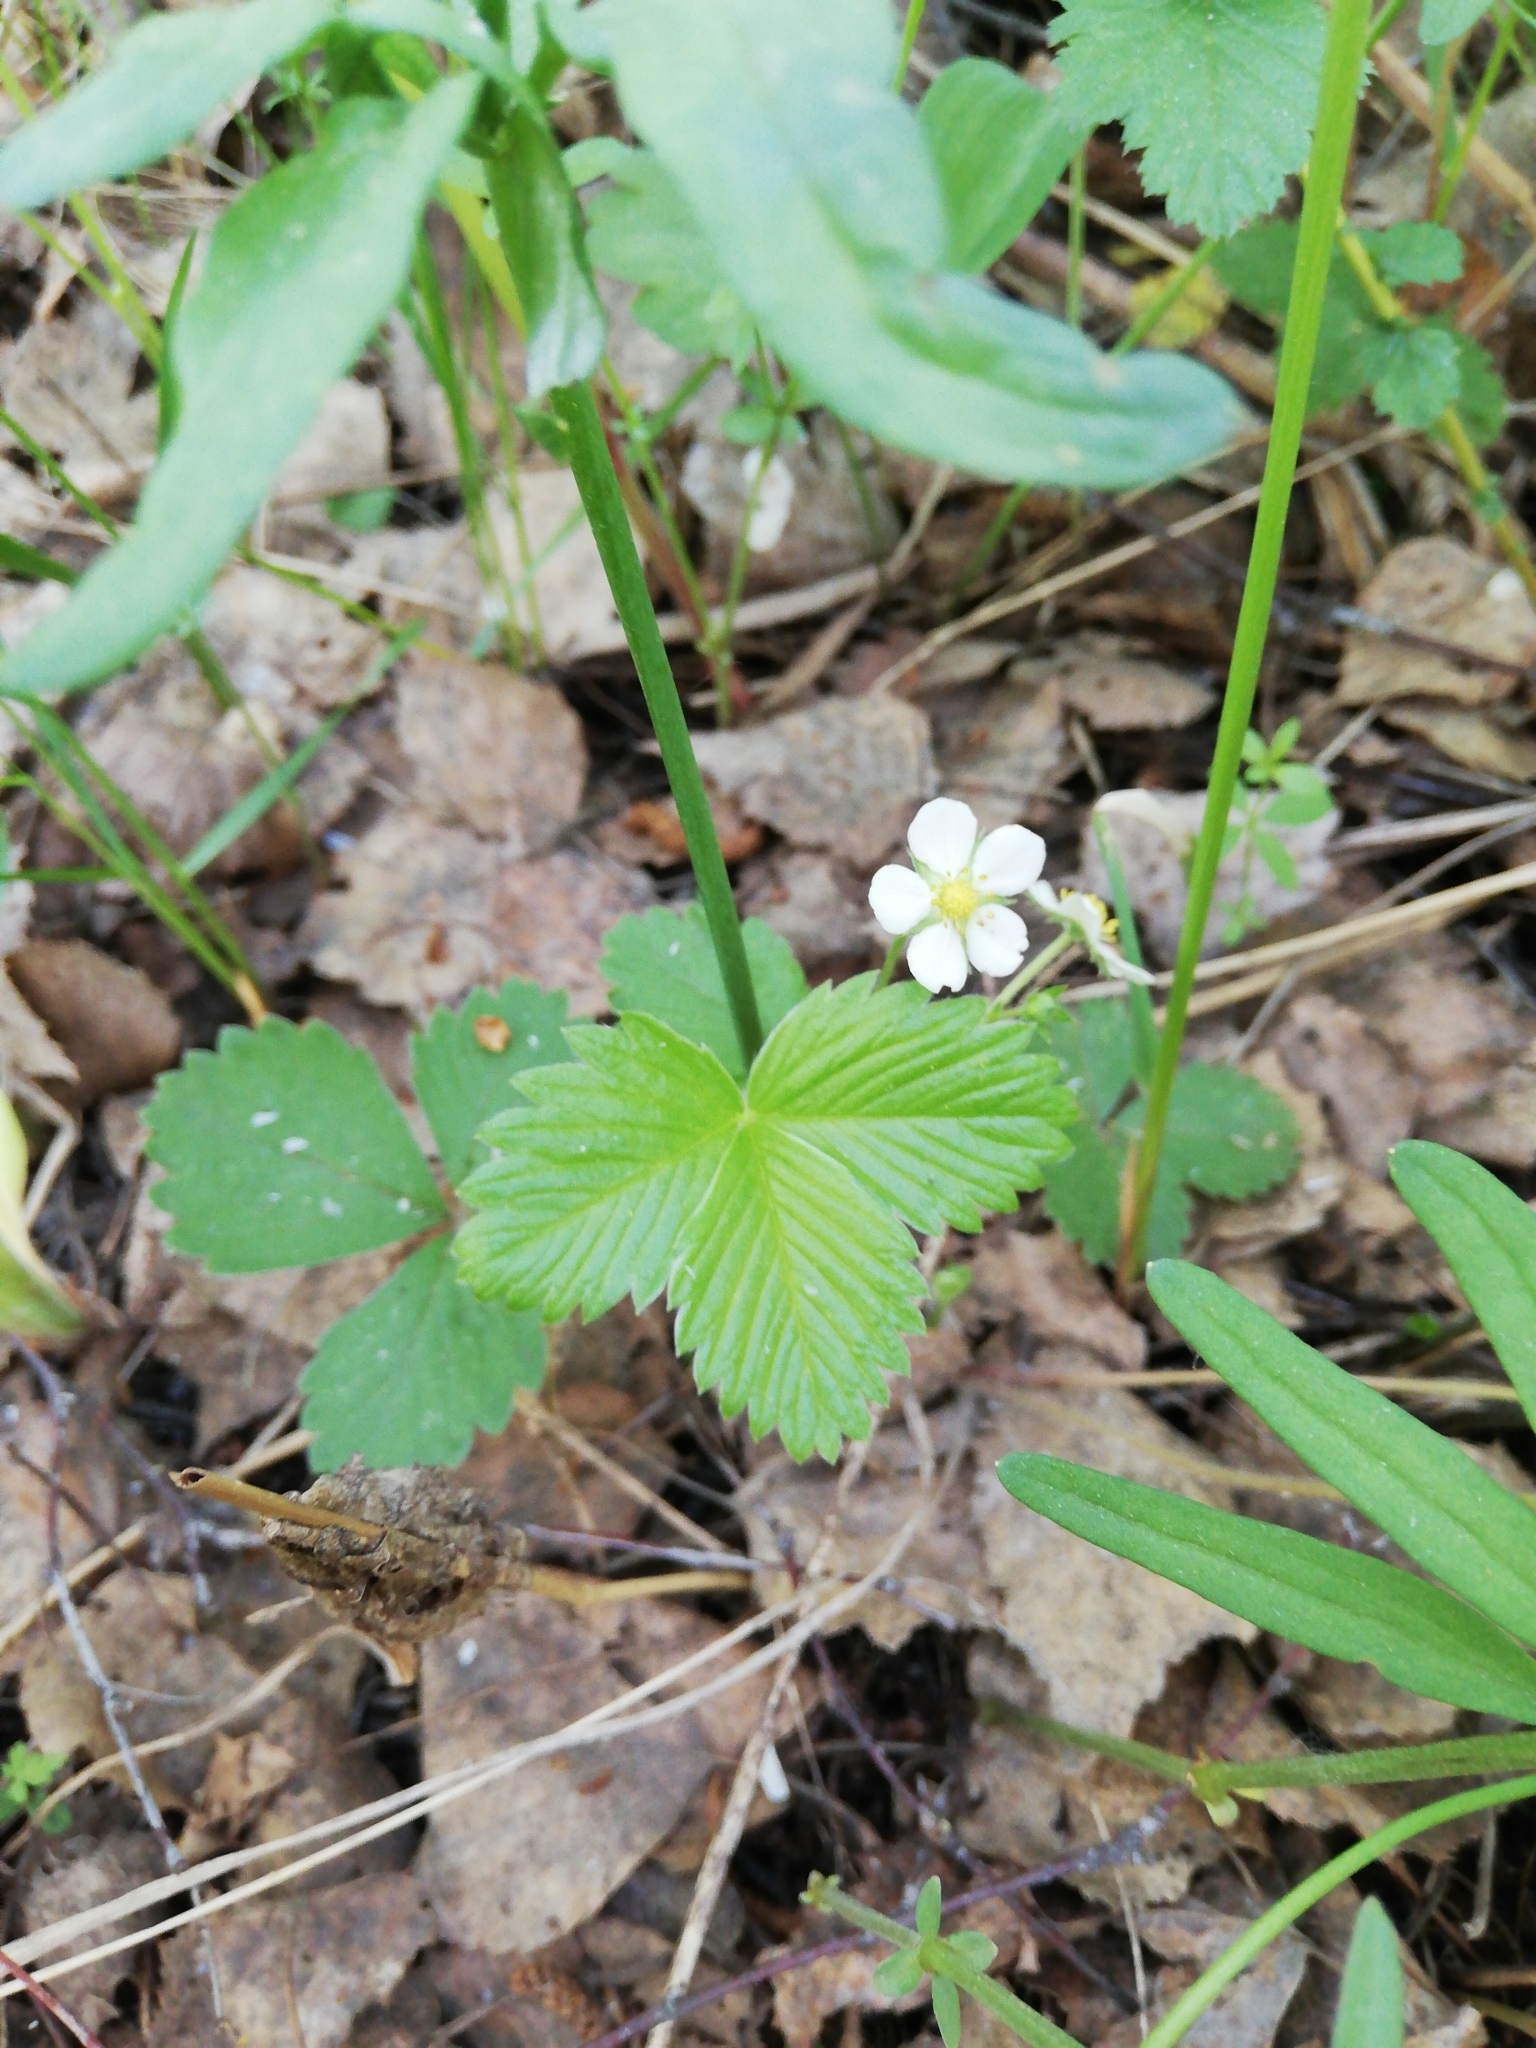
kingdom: Plantae
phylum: Tracheophyta
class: Magnoliopsida
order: Rosales
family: Rosaceae
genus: Fragaria
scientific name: Fragaria vesca
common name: Wild strawberry
